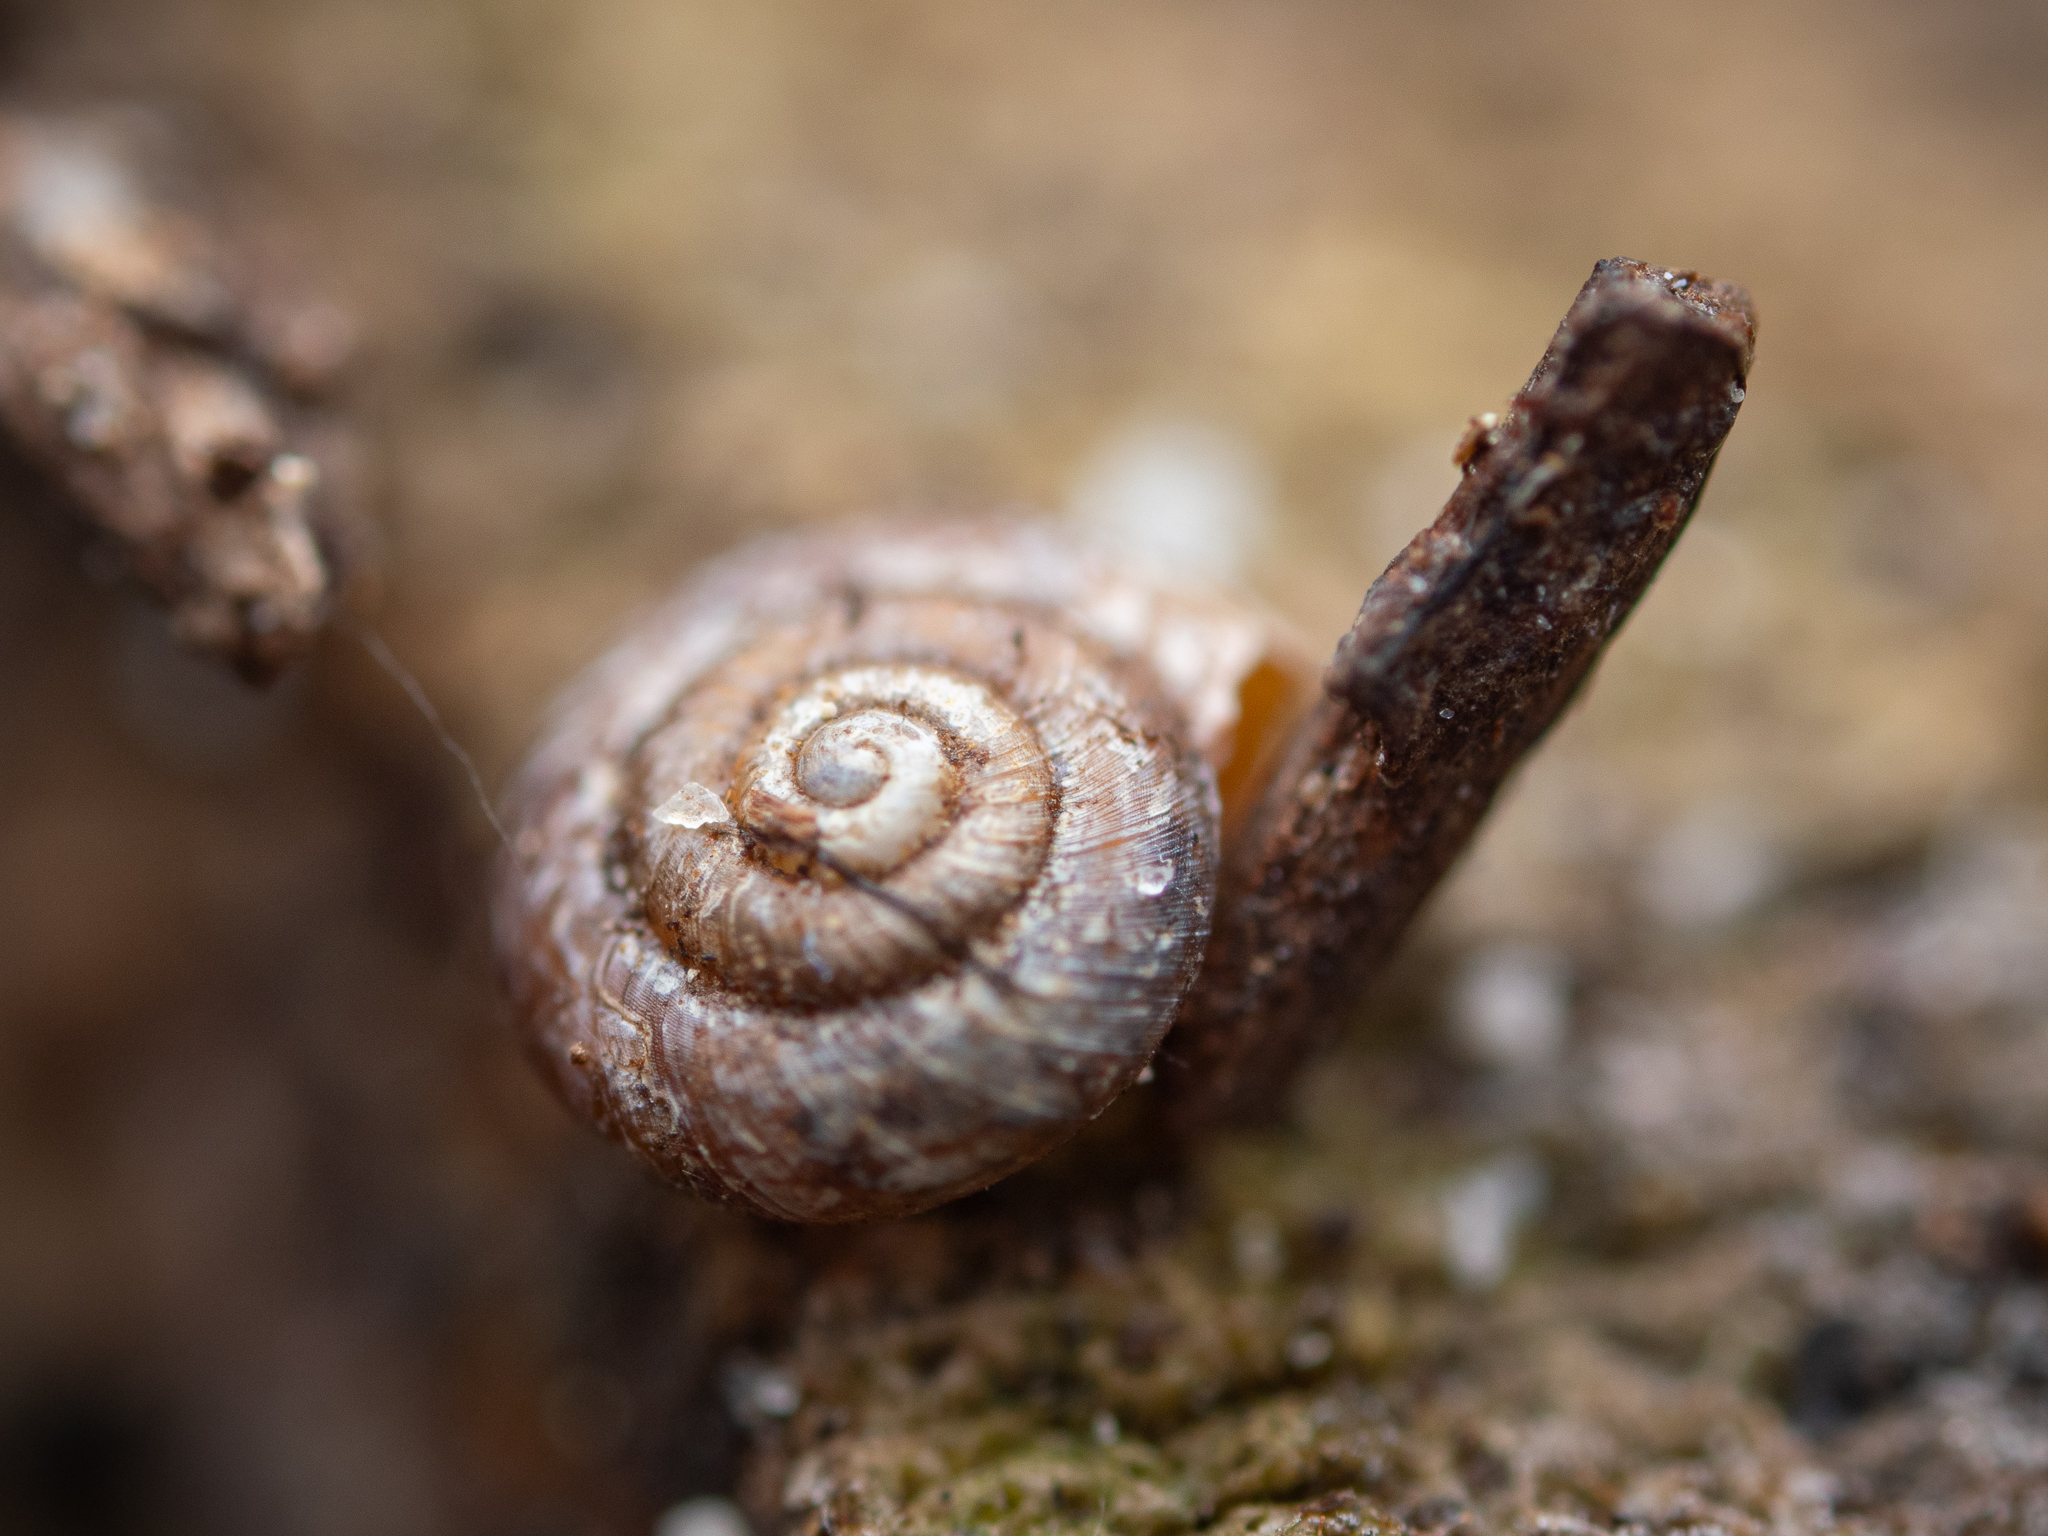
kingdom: Animalia
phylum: Mollusca
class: Gastropoda
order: Stylommatophora
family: Punctidae
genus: Paralaoma
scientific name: Paralaoma servilis
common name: Pinhead spot
